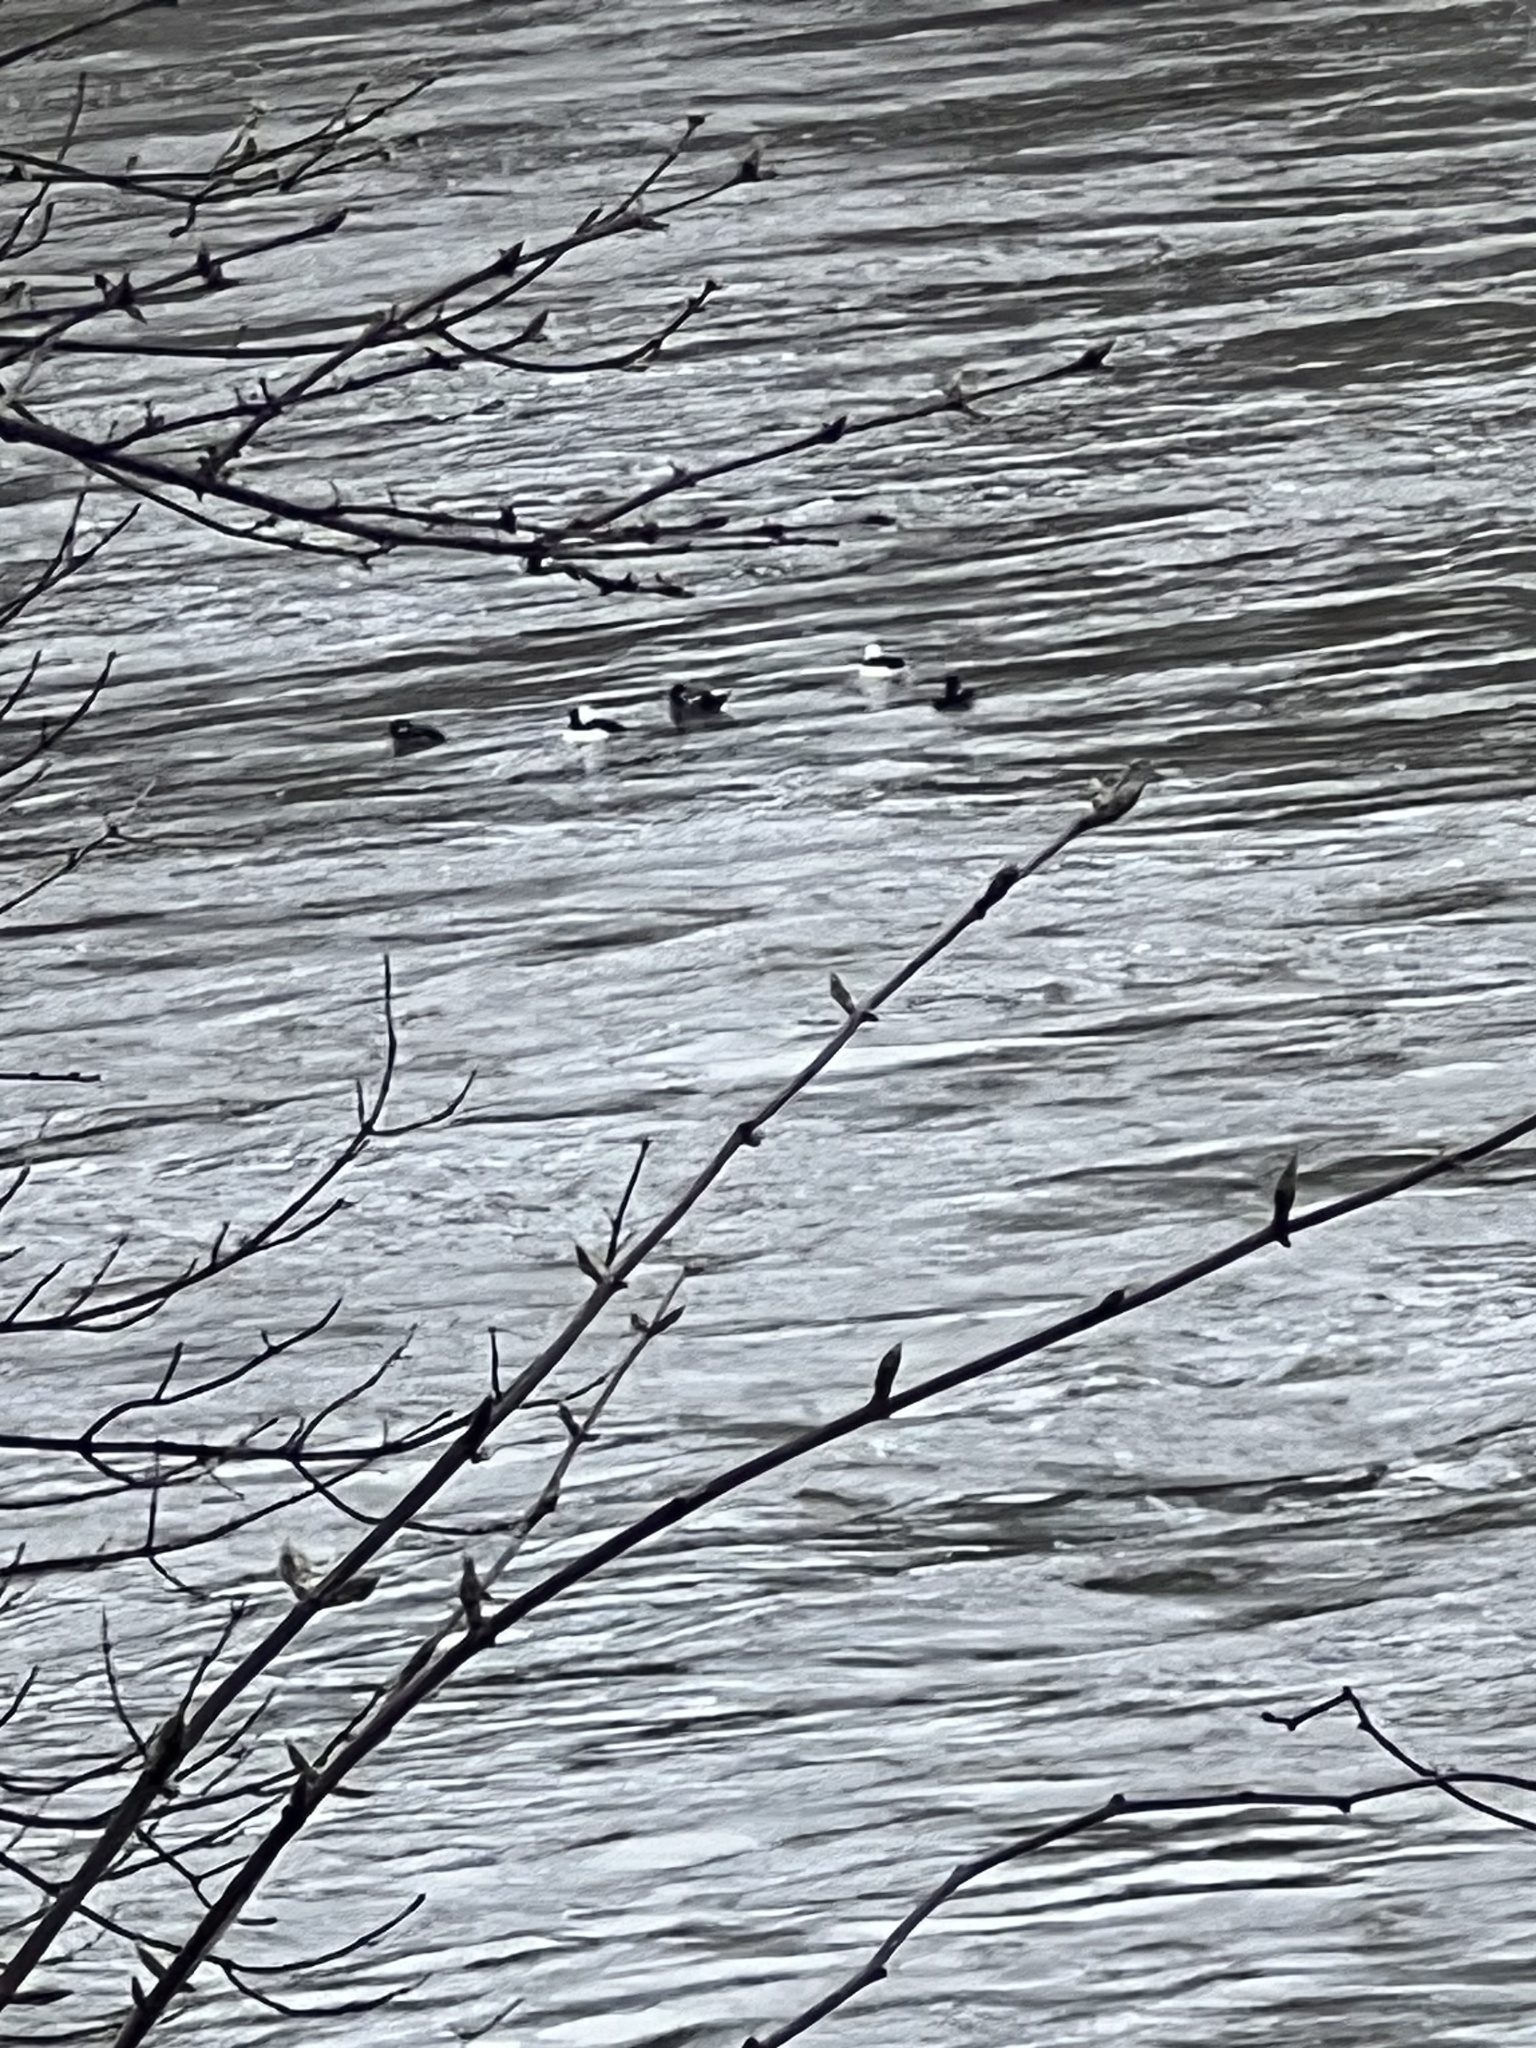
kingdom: Animalia
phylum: Chordata
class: Aves
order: Anseriformes
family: Anatidae
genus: Bucephala
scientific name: Bucephala albeola
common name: Bufflehead
